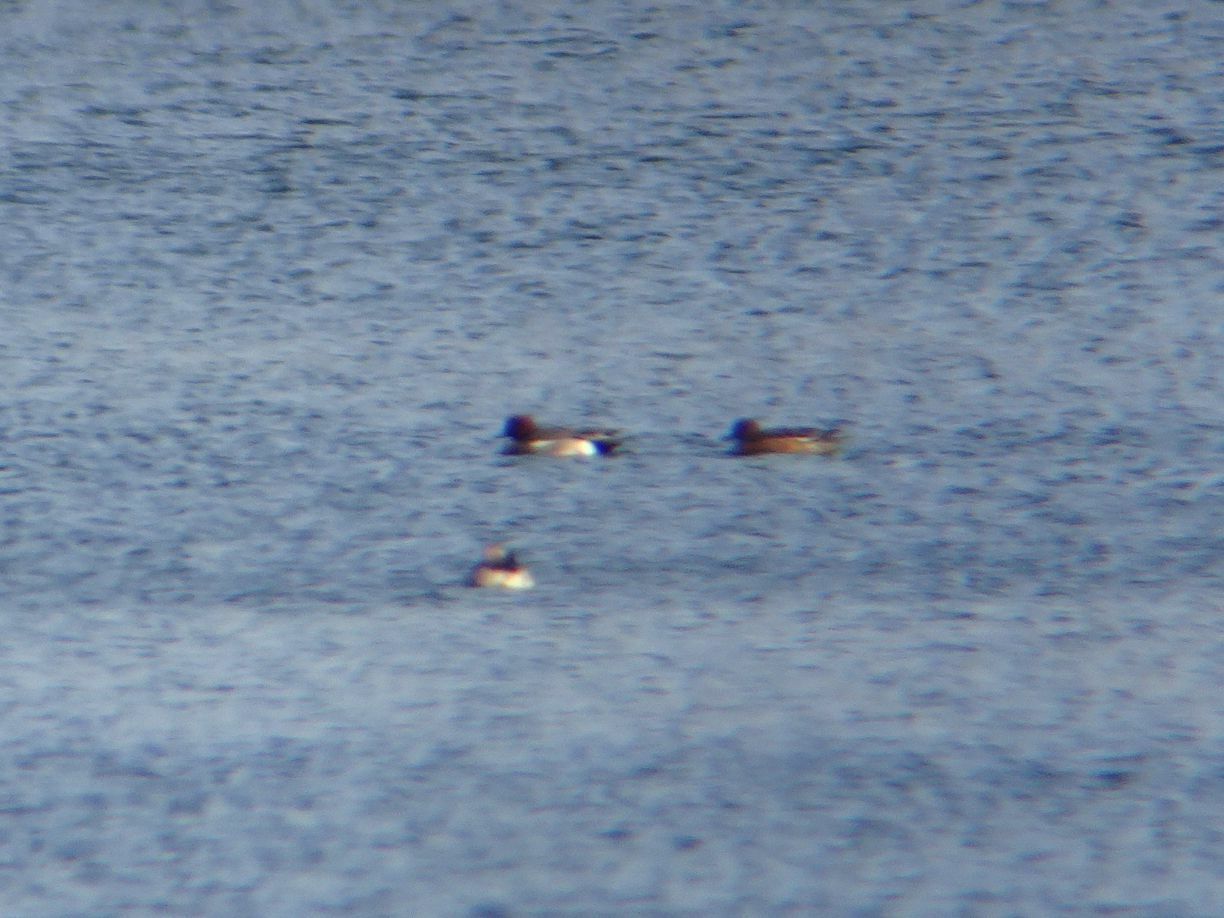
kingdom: Animalia
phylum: Chordata
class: Aves
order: Anseriformes
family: Anatidae
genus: Mareca
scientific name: Mareca penelope
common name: Eurasian wigeon
